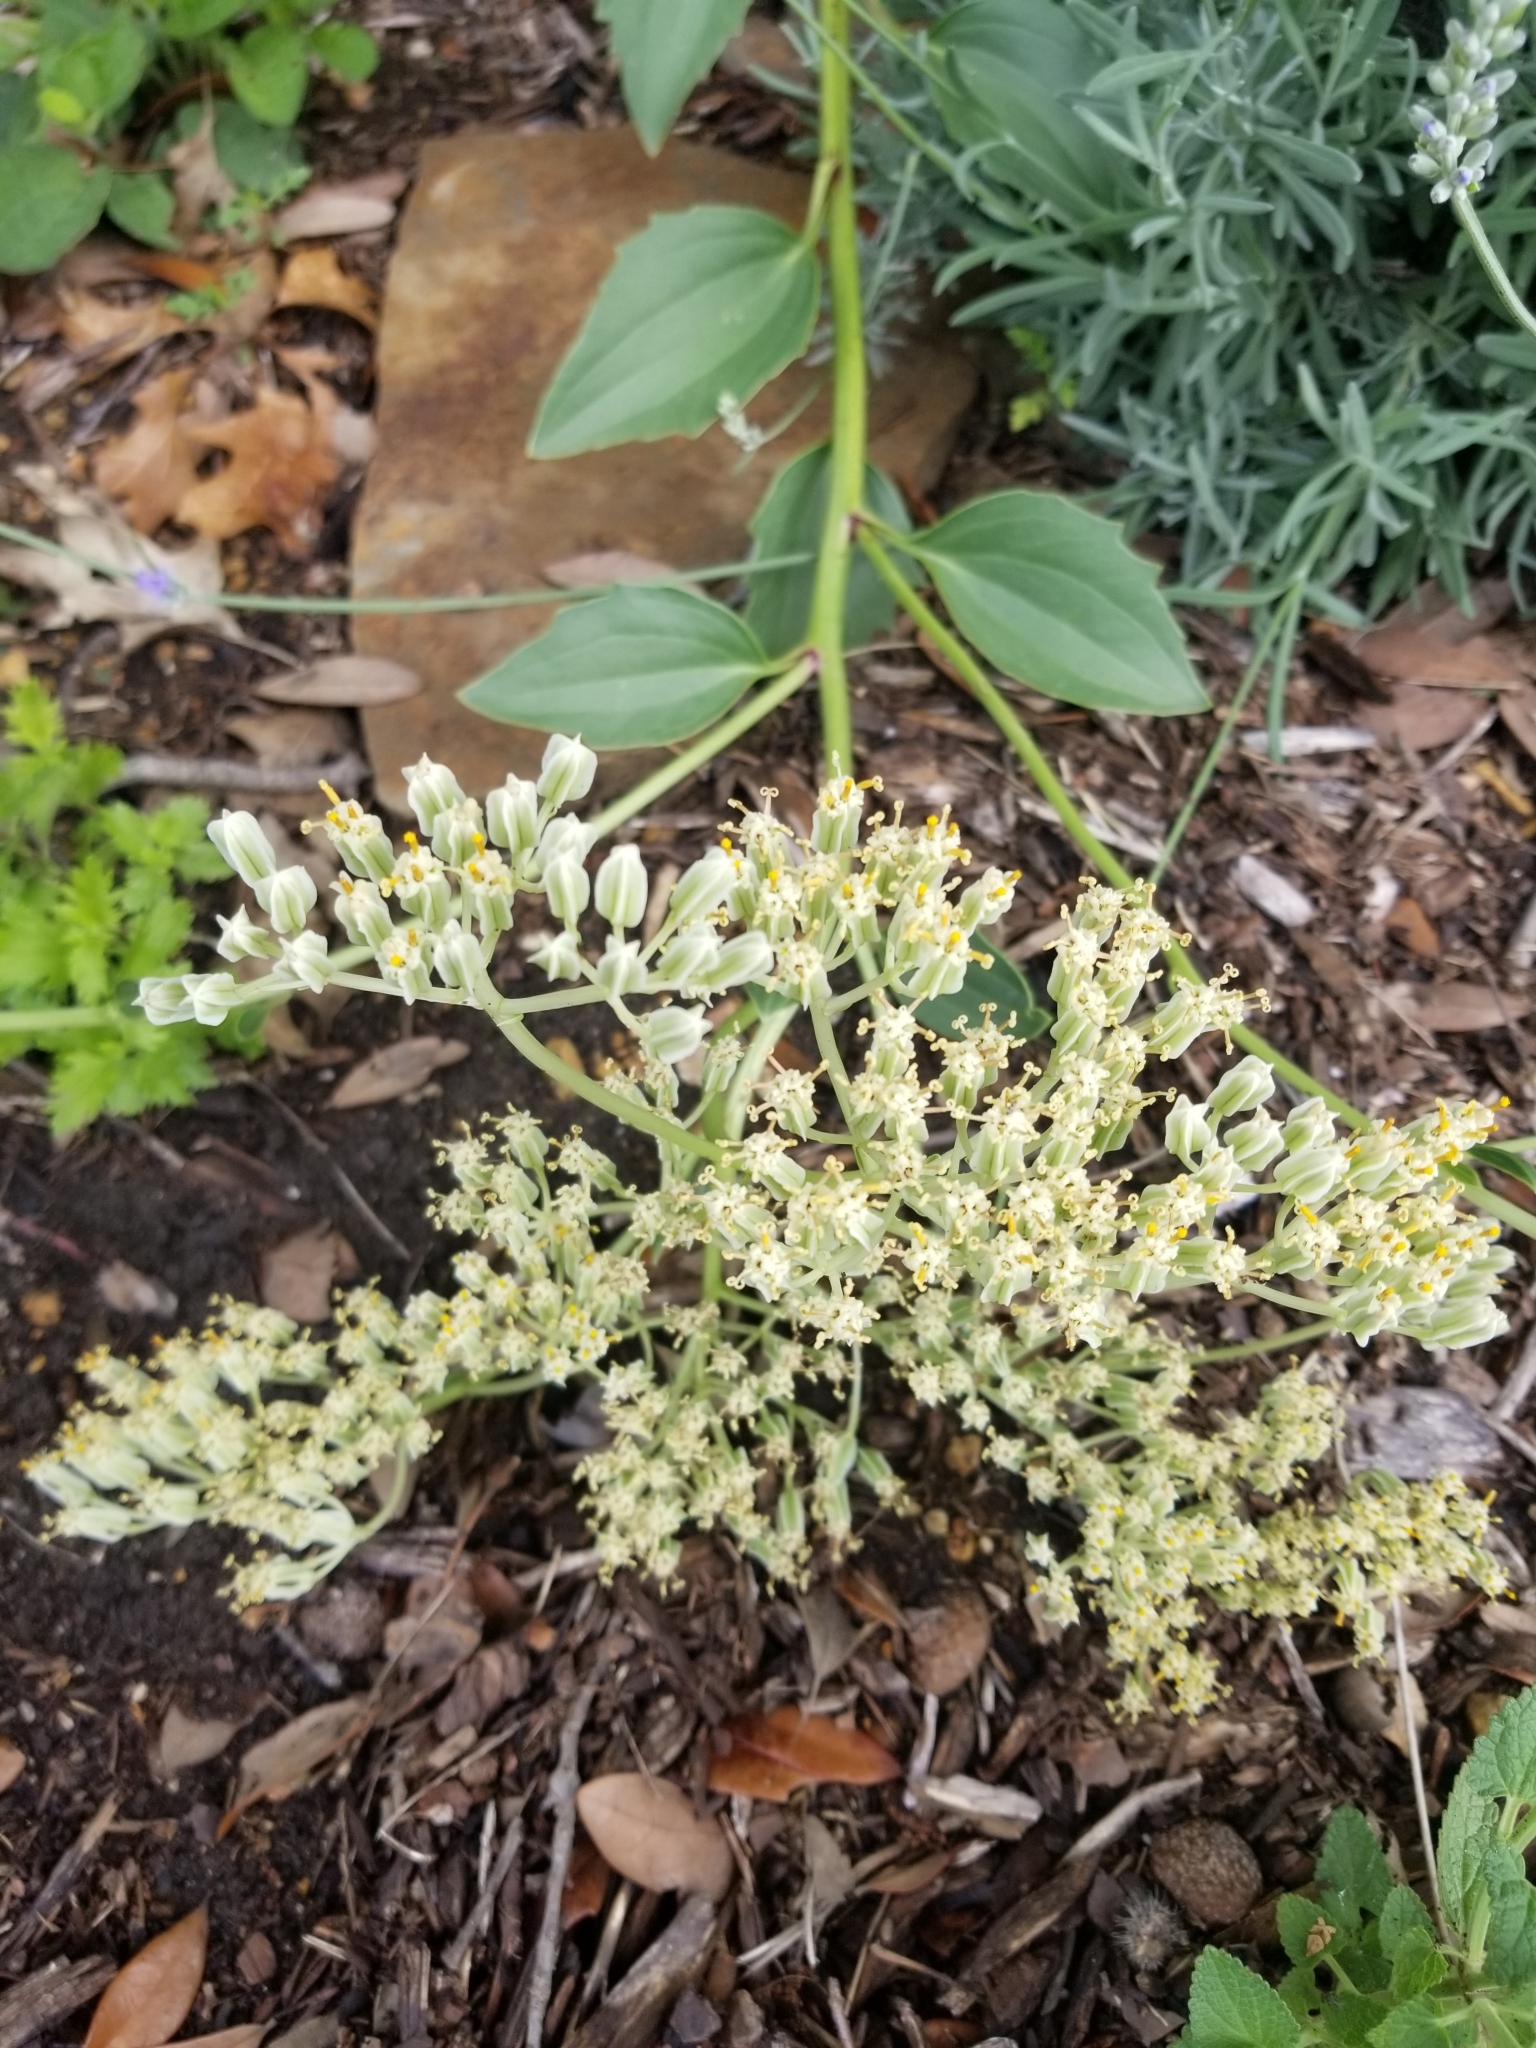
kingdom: Plantae
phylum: Tracheophyta
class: Magnoliopsida
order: Asterales
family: Asteraceae
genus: Arnoglossum
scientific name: Arnoglossum plantagineum
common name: Groove-stemmed indian-plantain
